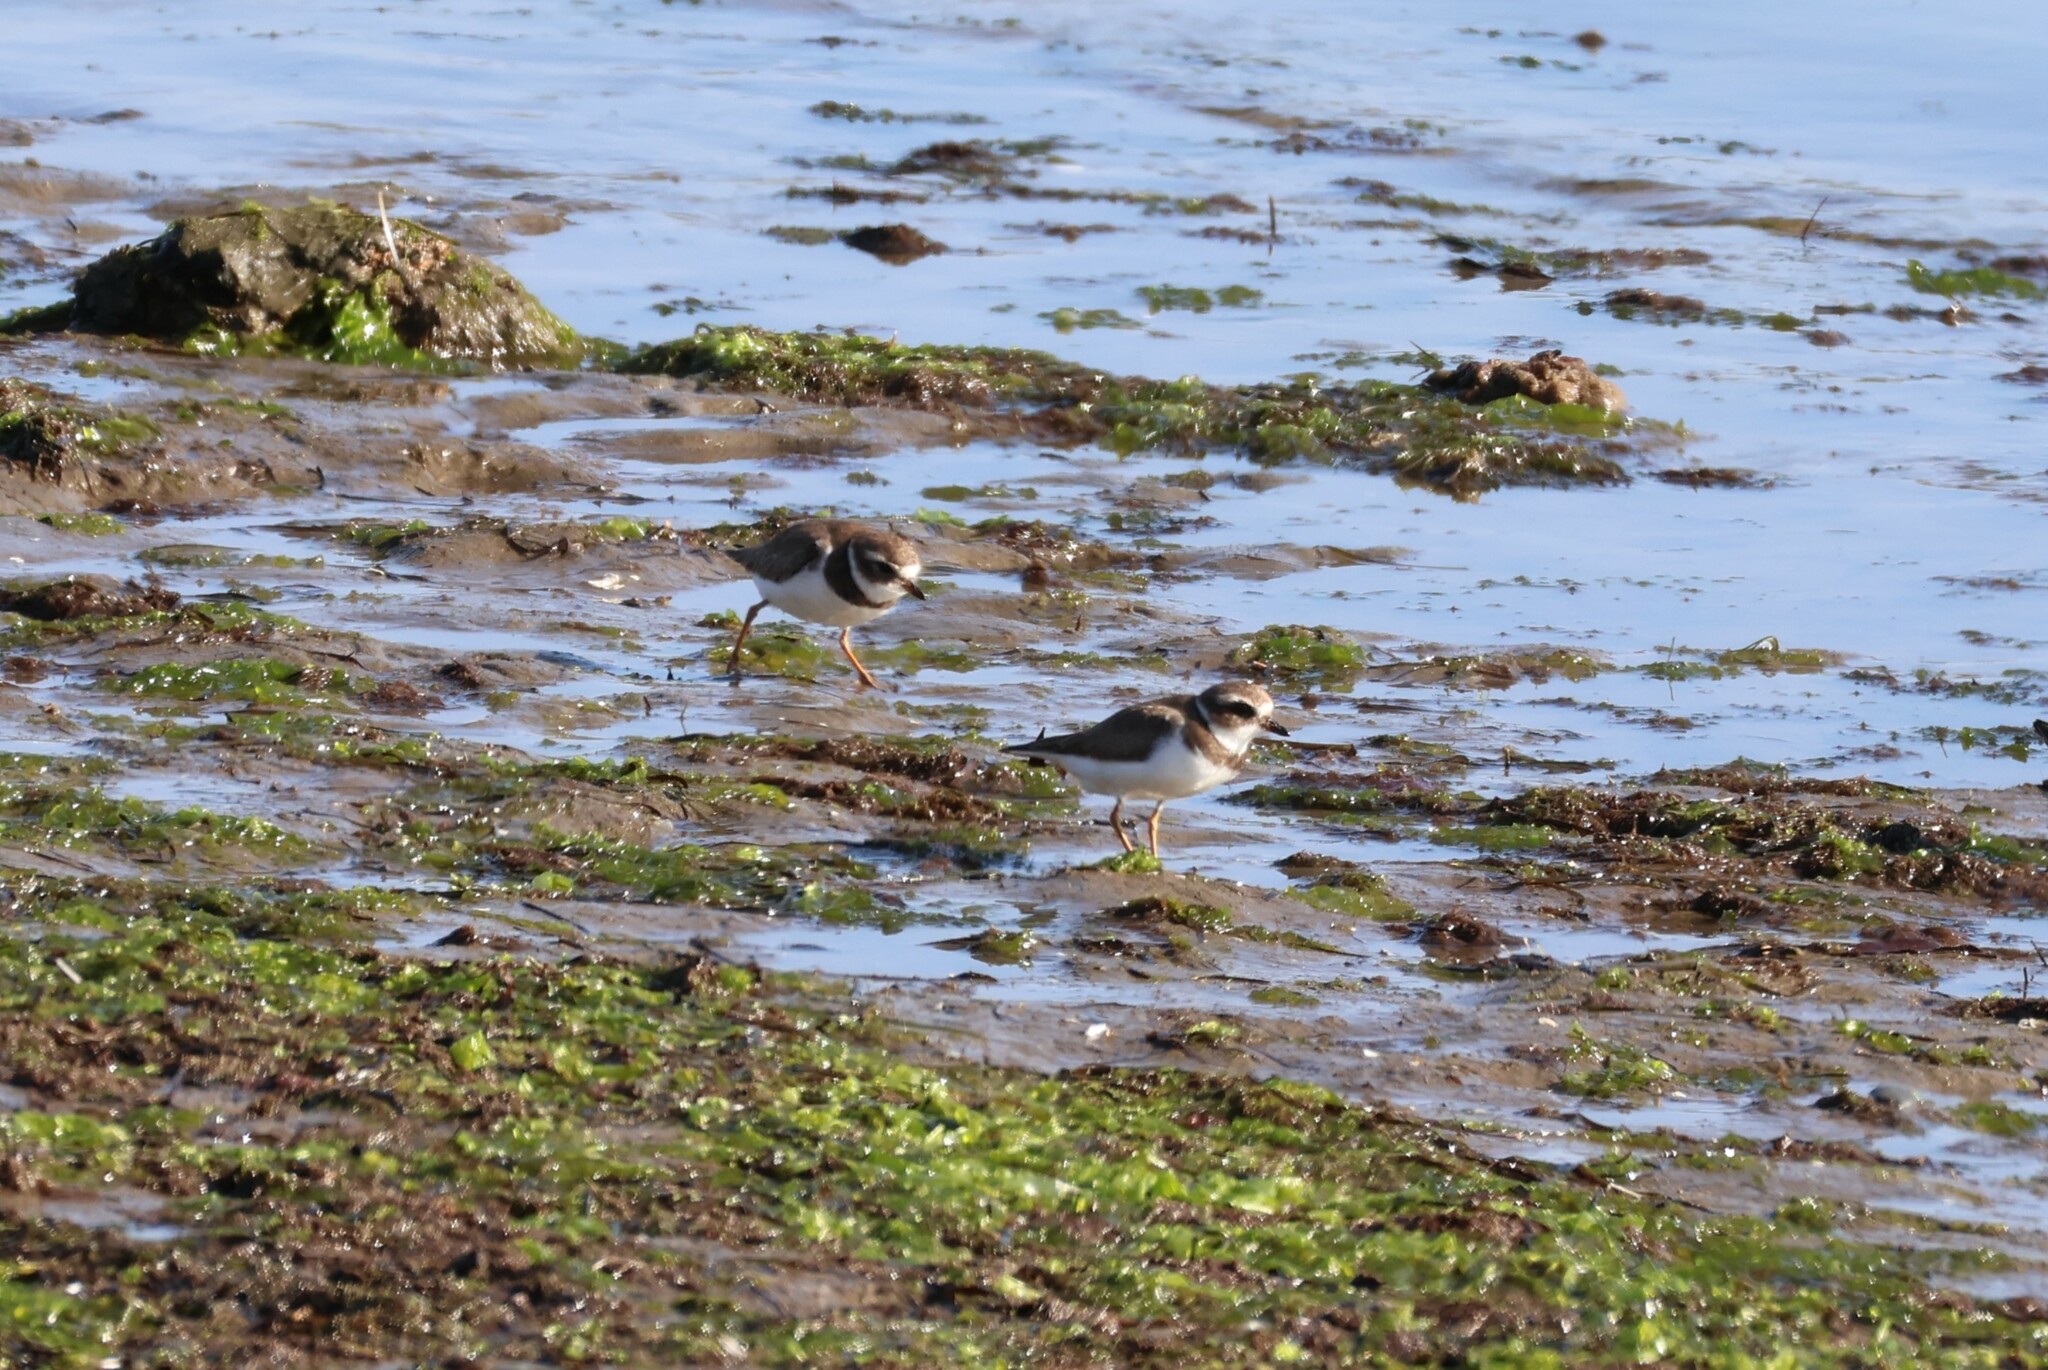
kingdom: Animalia
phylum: Chordata
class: Aves
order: Charadriiformes
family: Charadriidae
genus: Charadrius
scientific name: Charadrius semipalmatus
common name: Semipalmated plover
